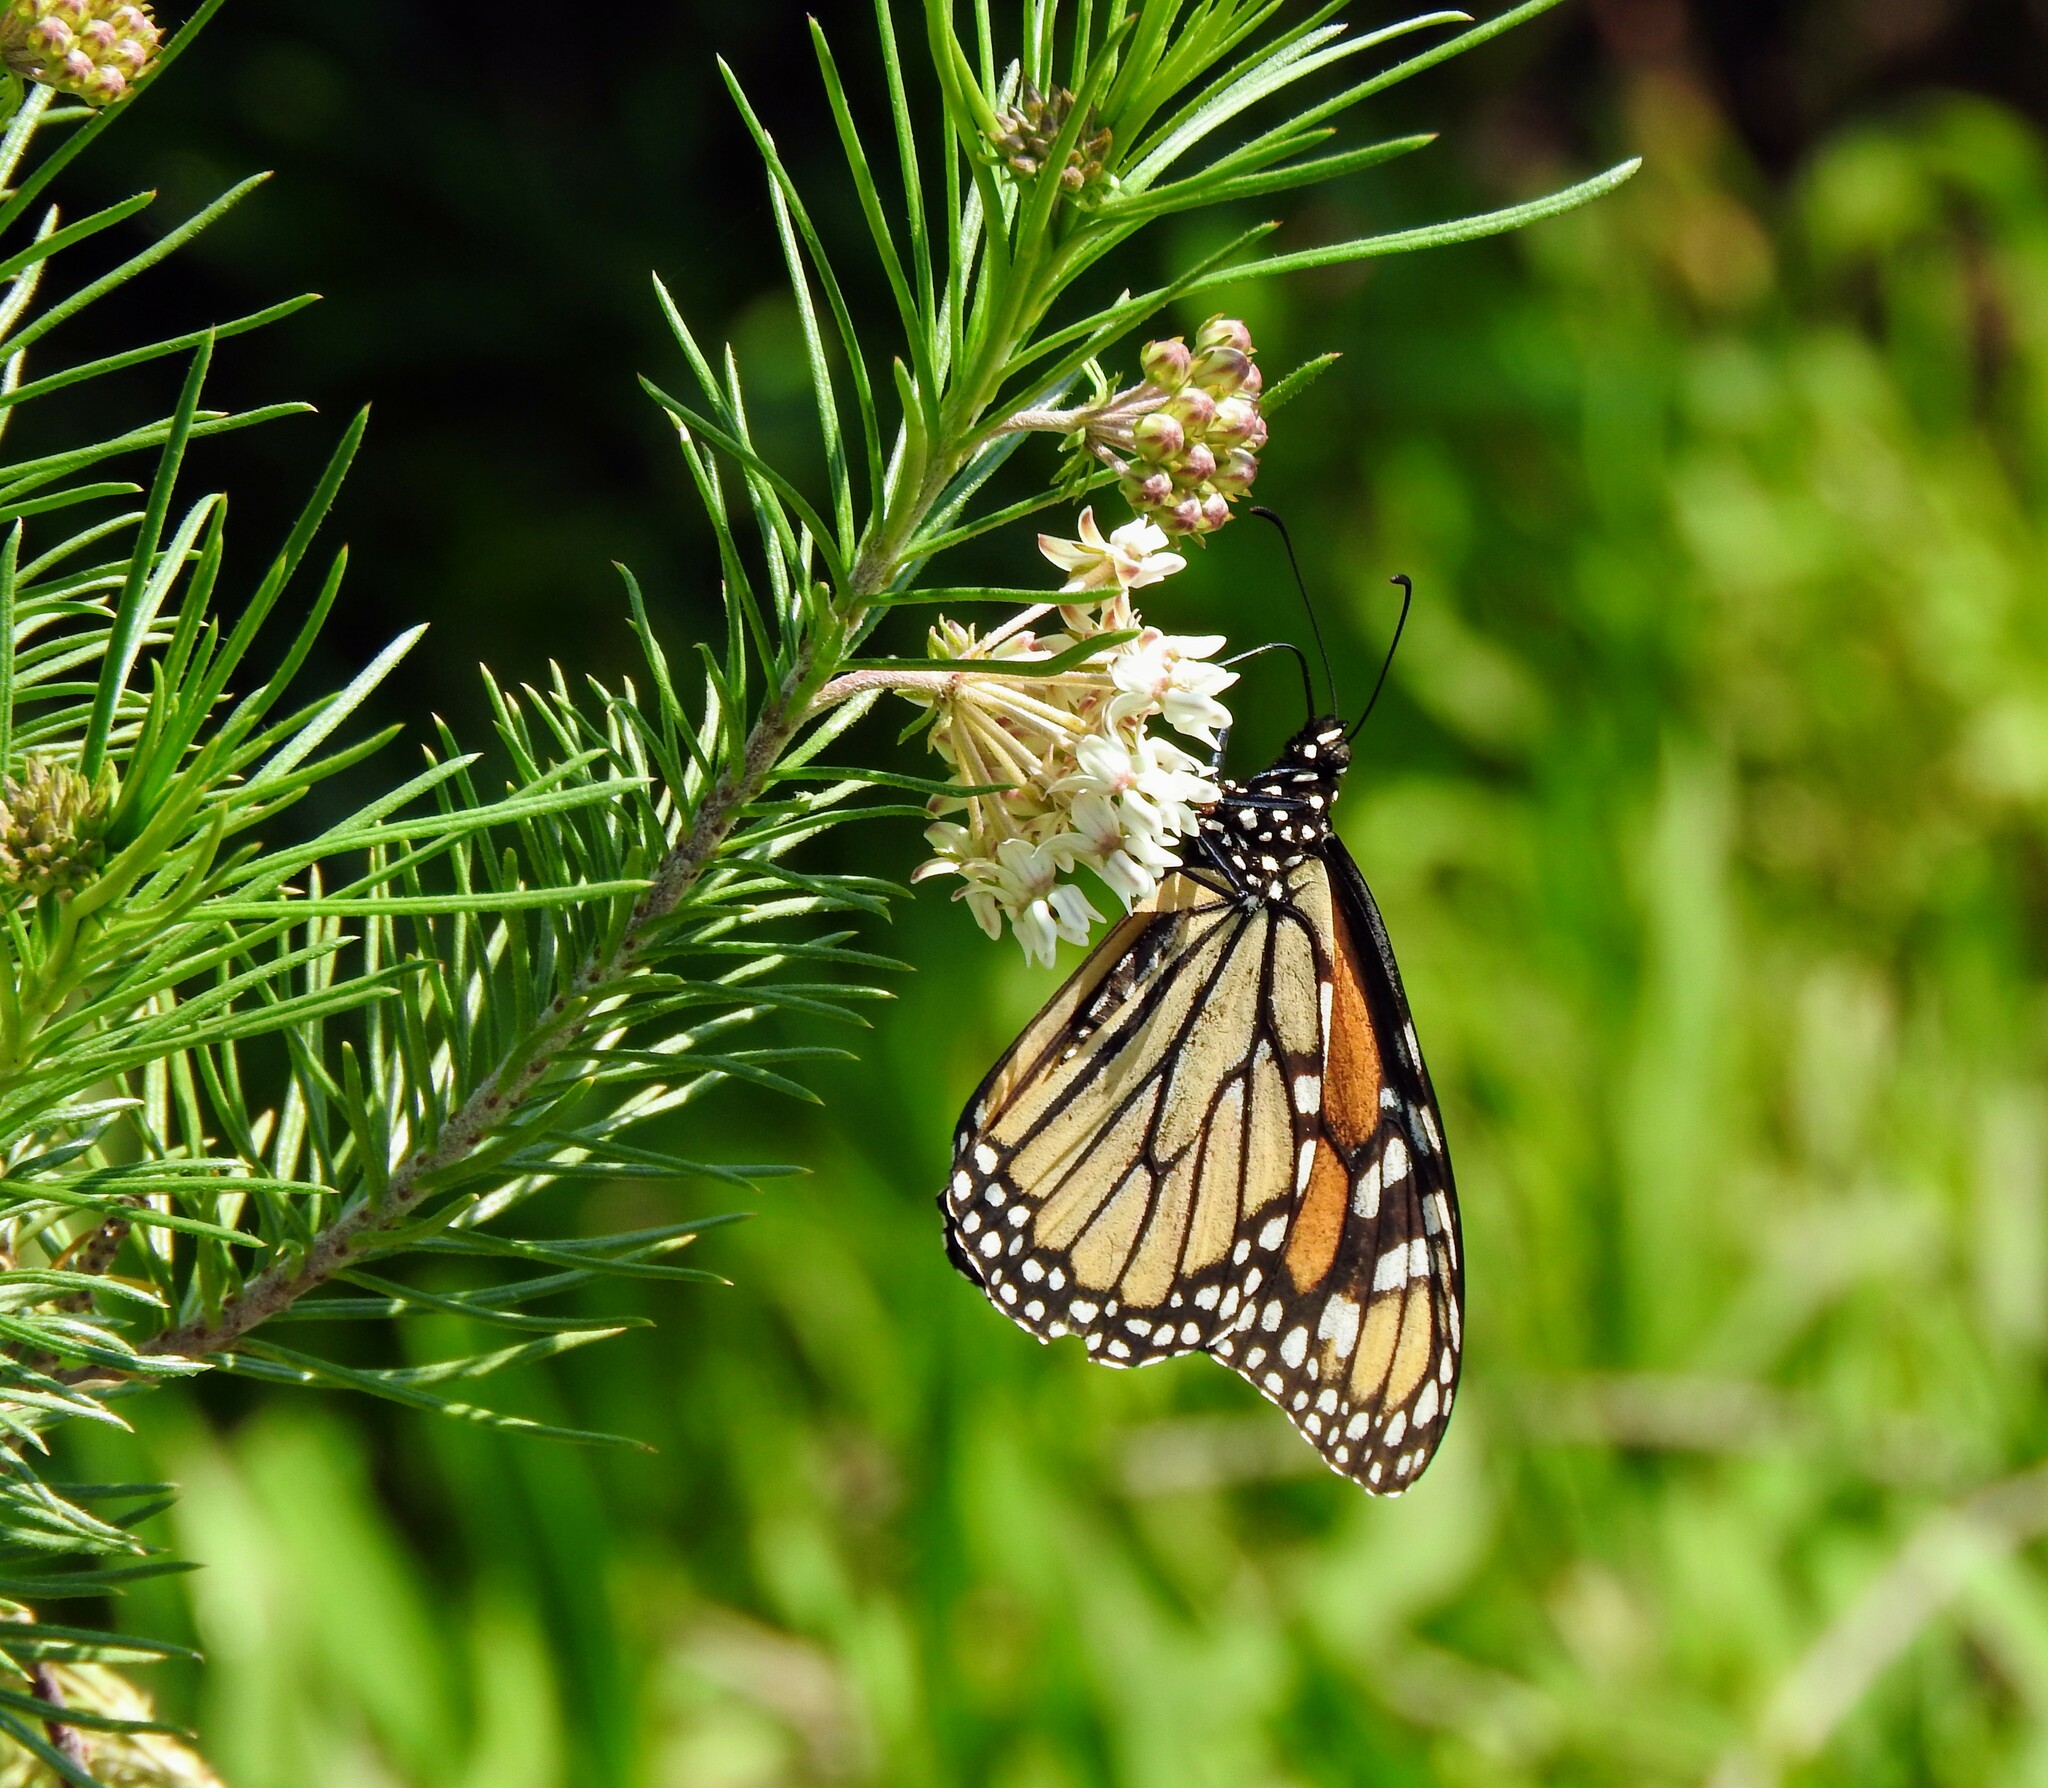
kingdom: Plantae
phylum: Tracheophyta
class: Magnoliopsida
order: Gentianales
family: Apocynaceae
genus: Asclepias
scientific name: Asclepias linaria
